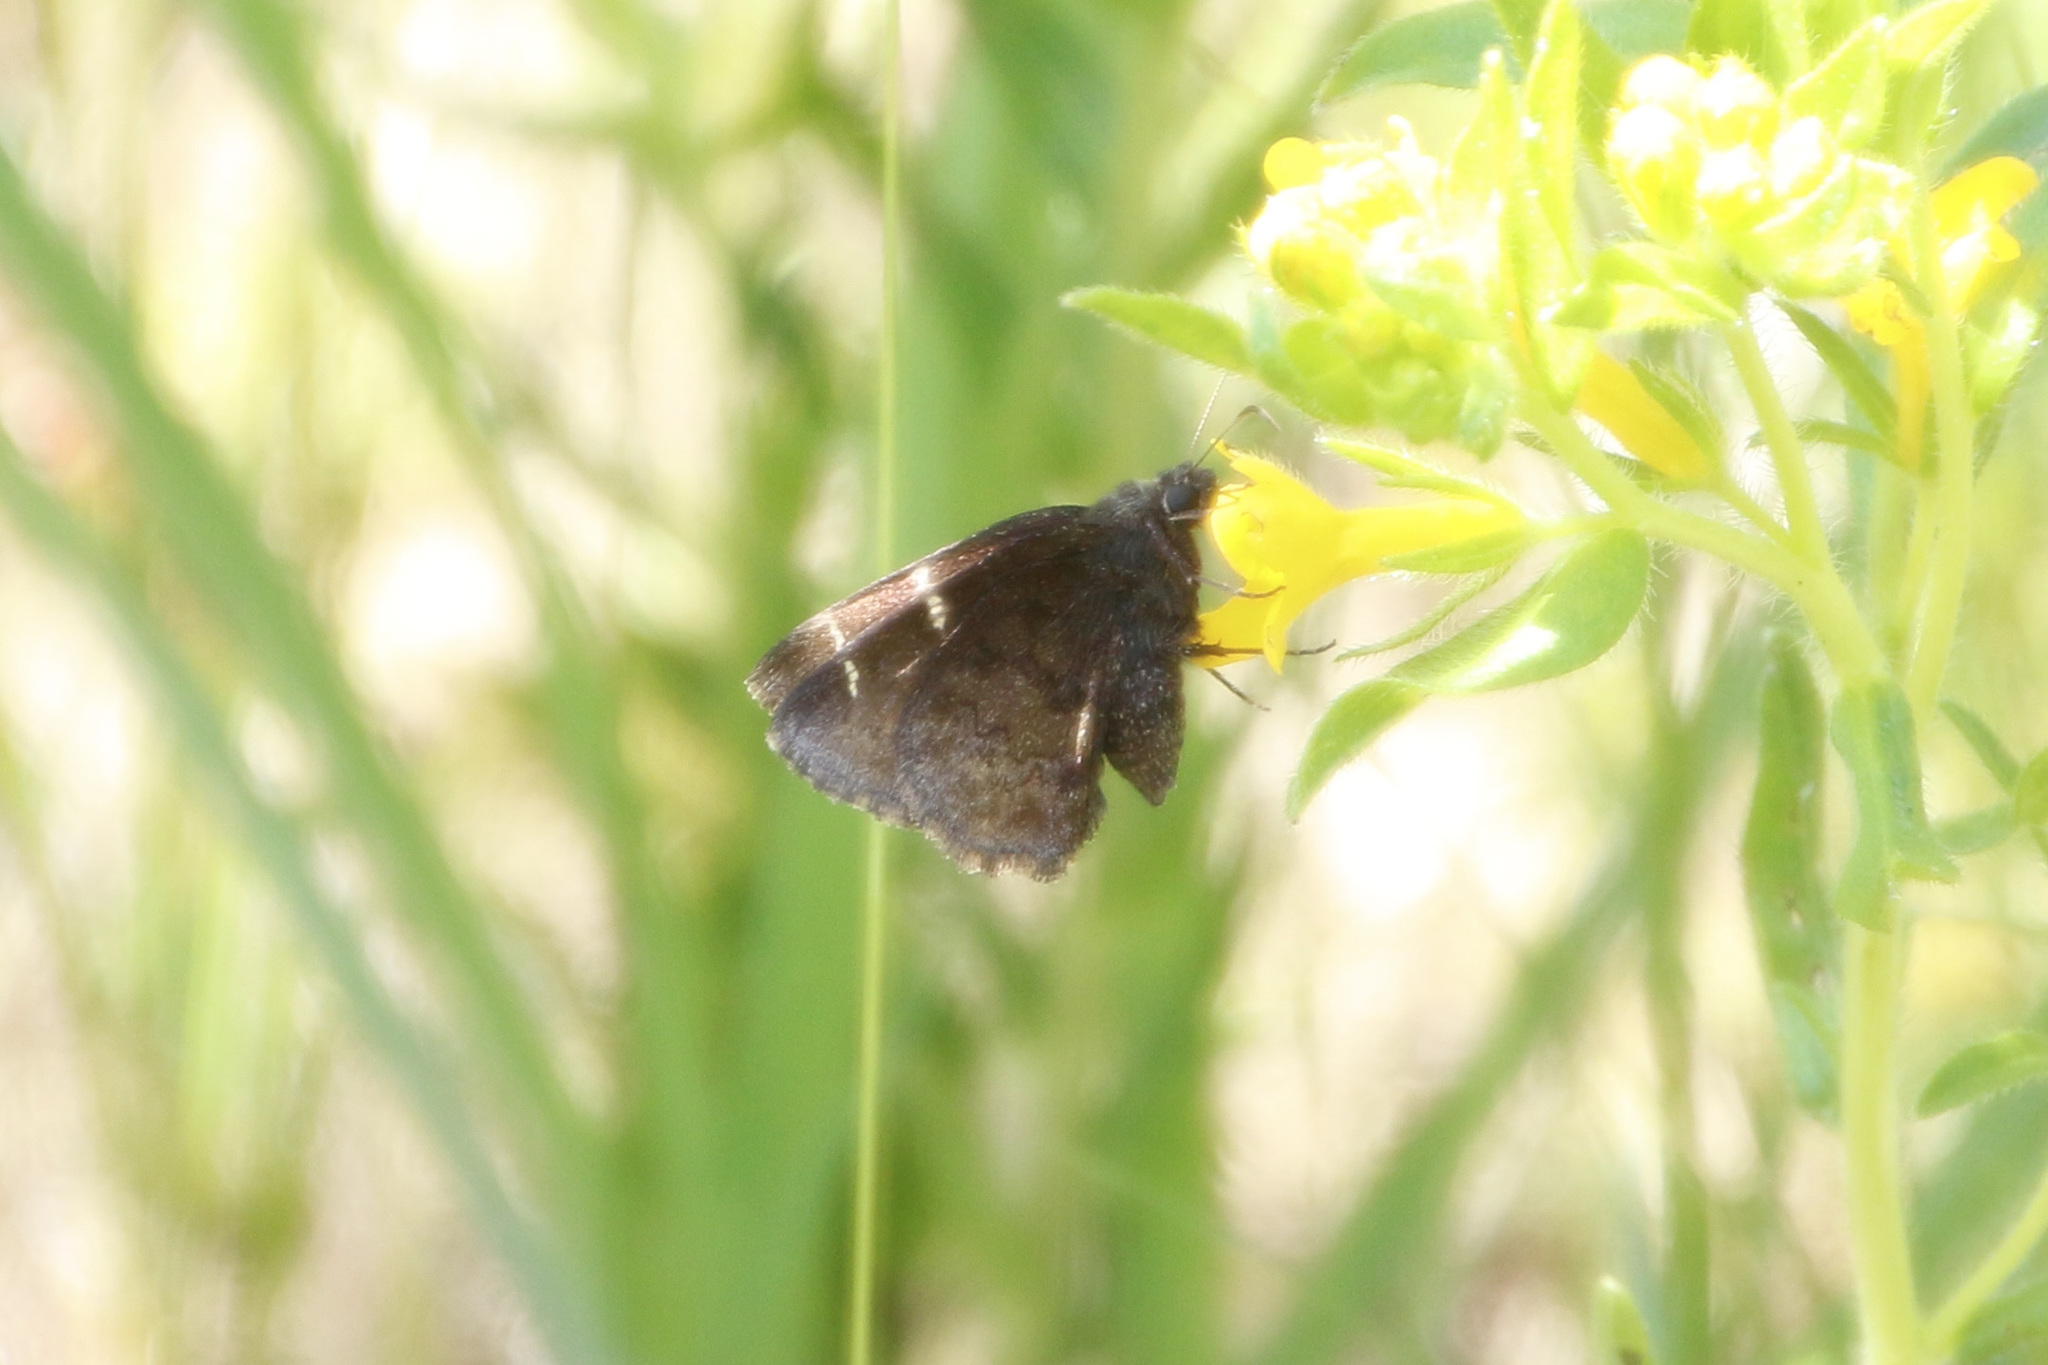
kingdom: Animalia
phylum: Arthropoda
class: Insecta
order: Lepidoptera
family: Hesperiidae
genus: Thorybes
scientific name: Thorybes pylades
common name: Northern cloudywing
